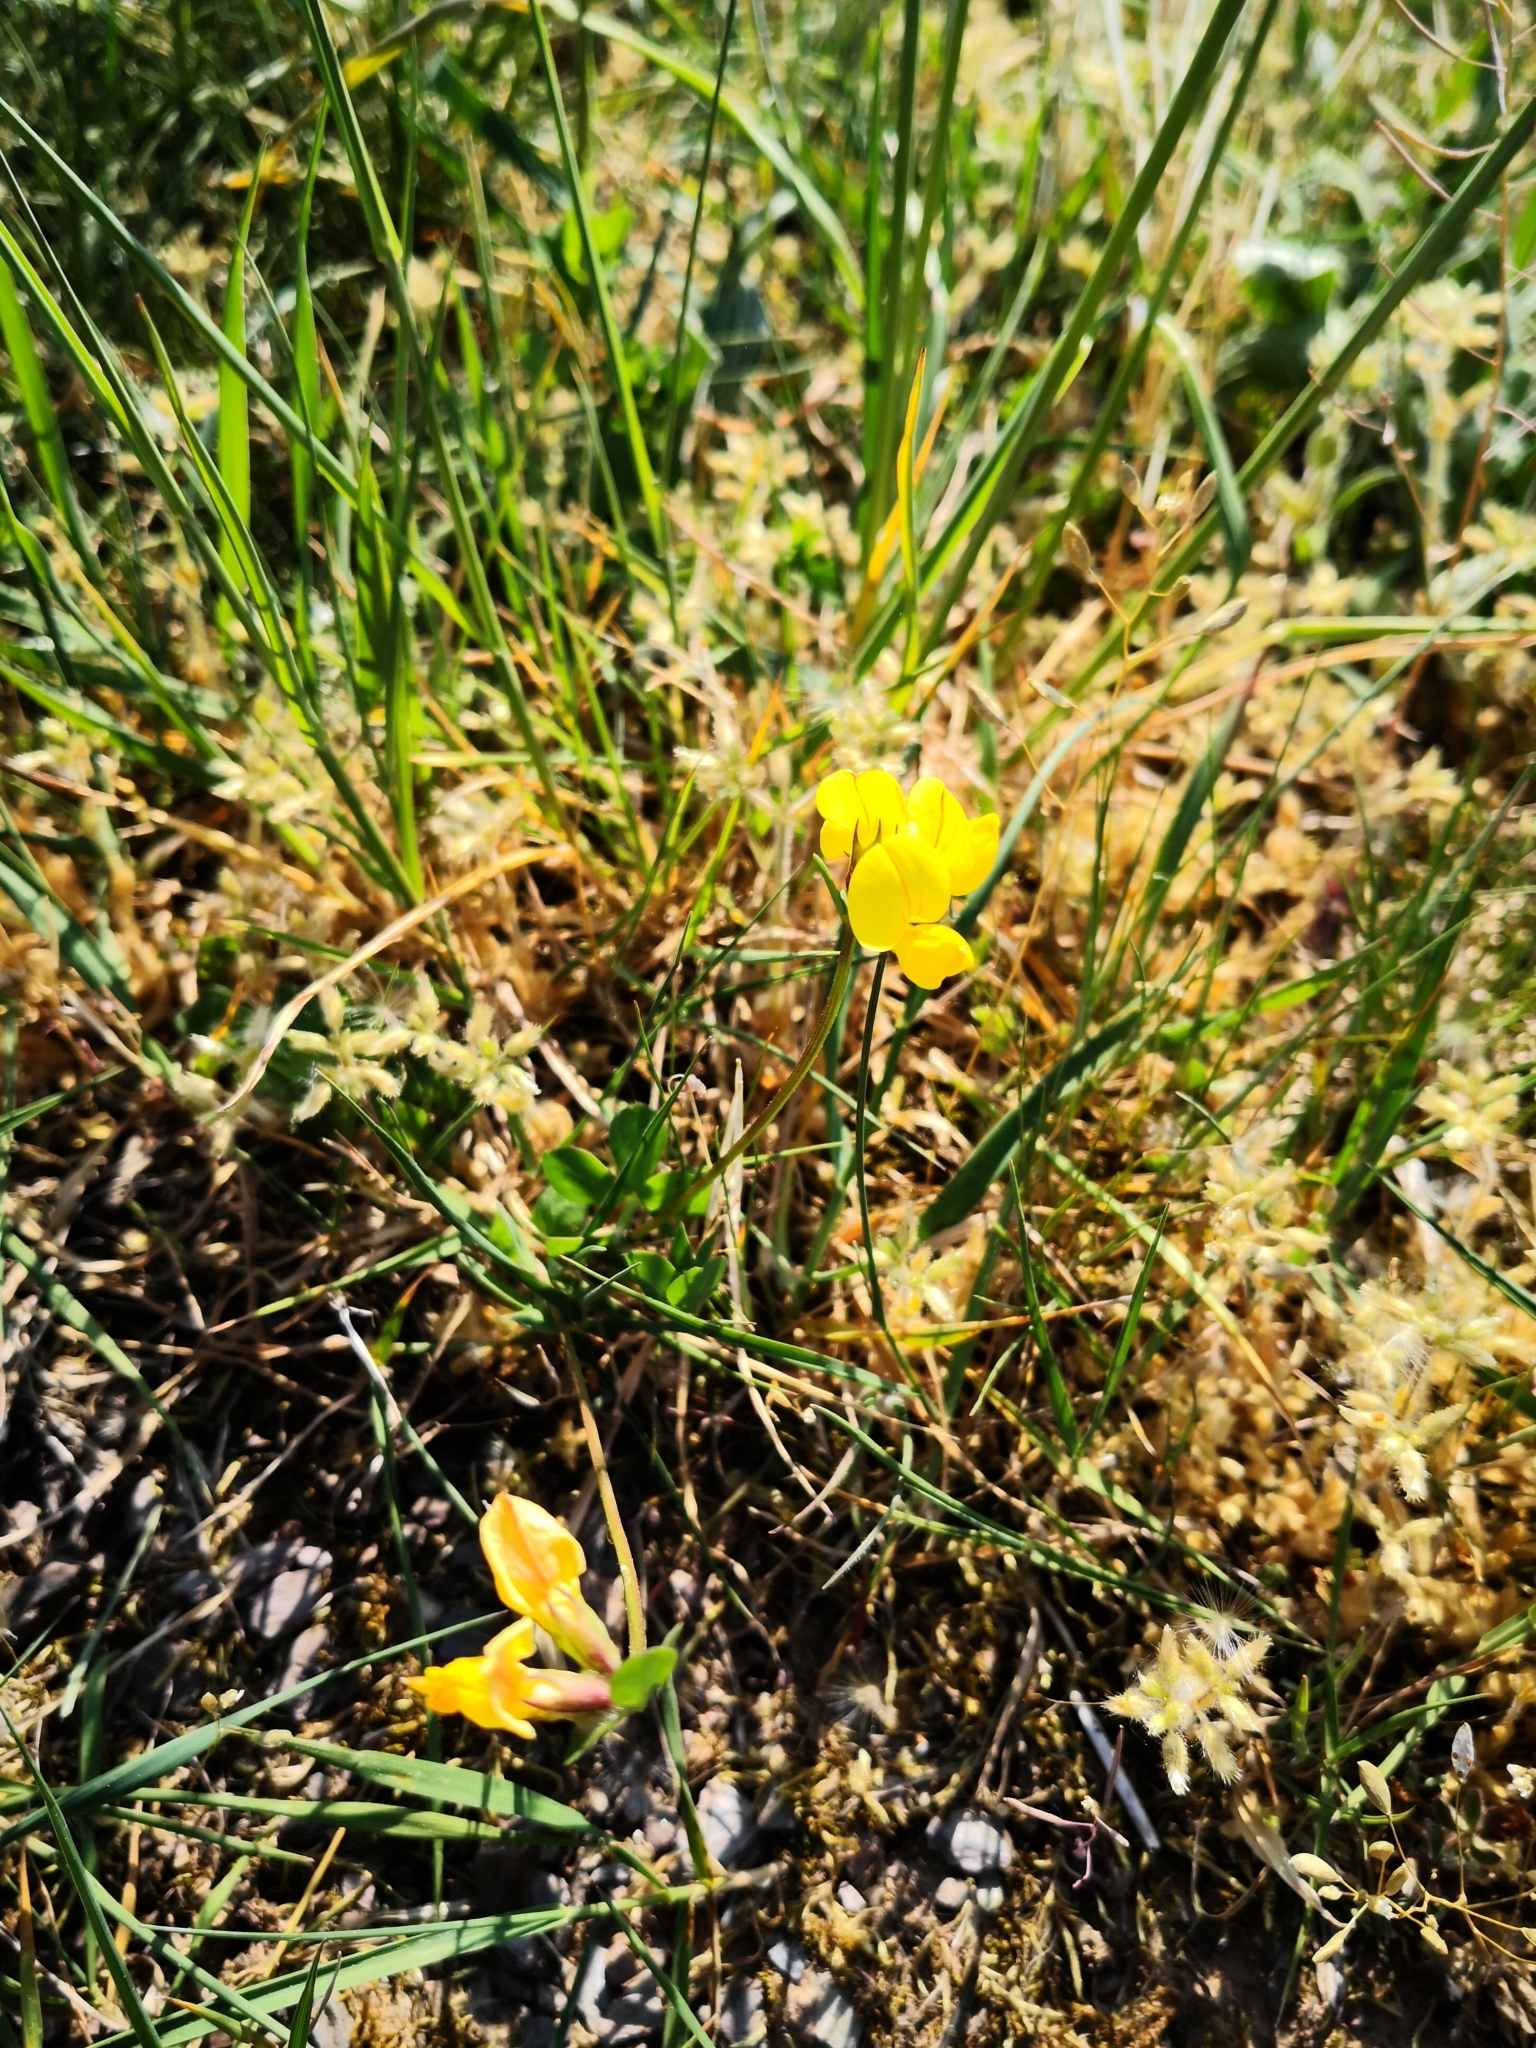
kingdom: Plantae
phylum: Tracheophyta
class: Magnoliopsida
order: Fabales
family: Fabaceae
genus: Lotus
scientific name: Lotus corniculatus
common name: Common bird's-foot-trefoil
